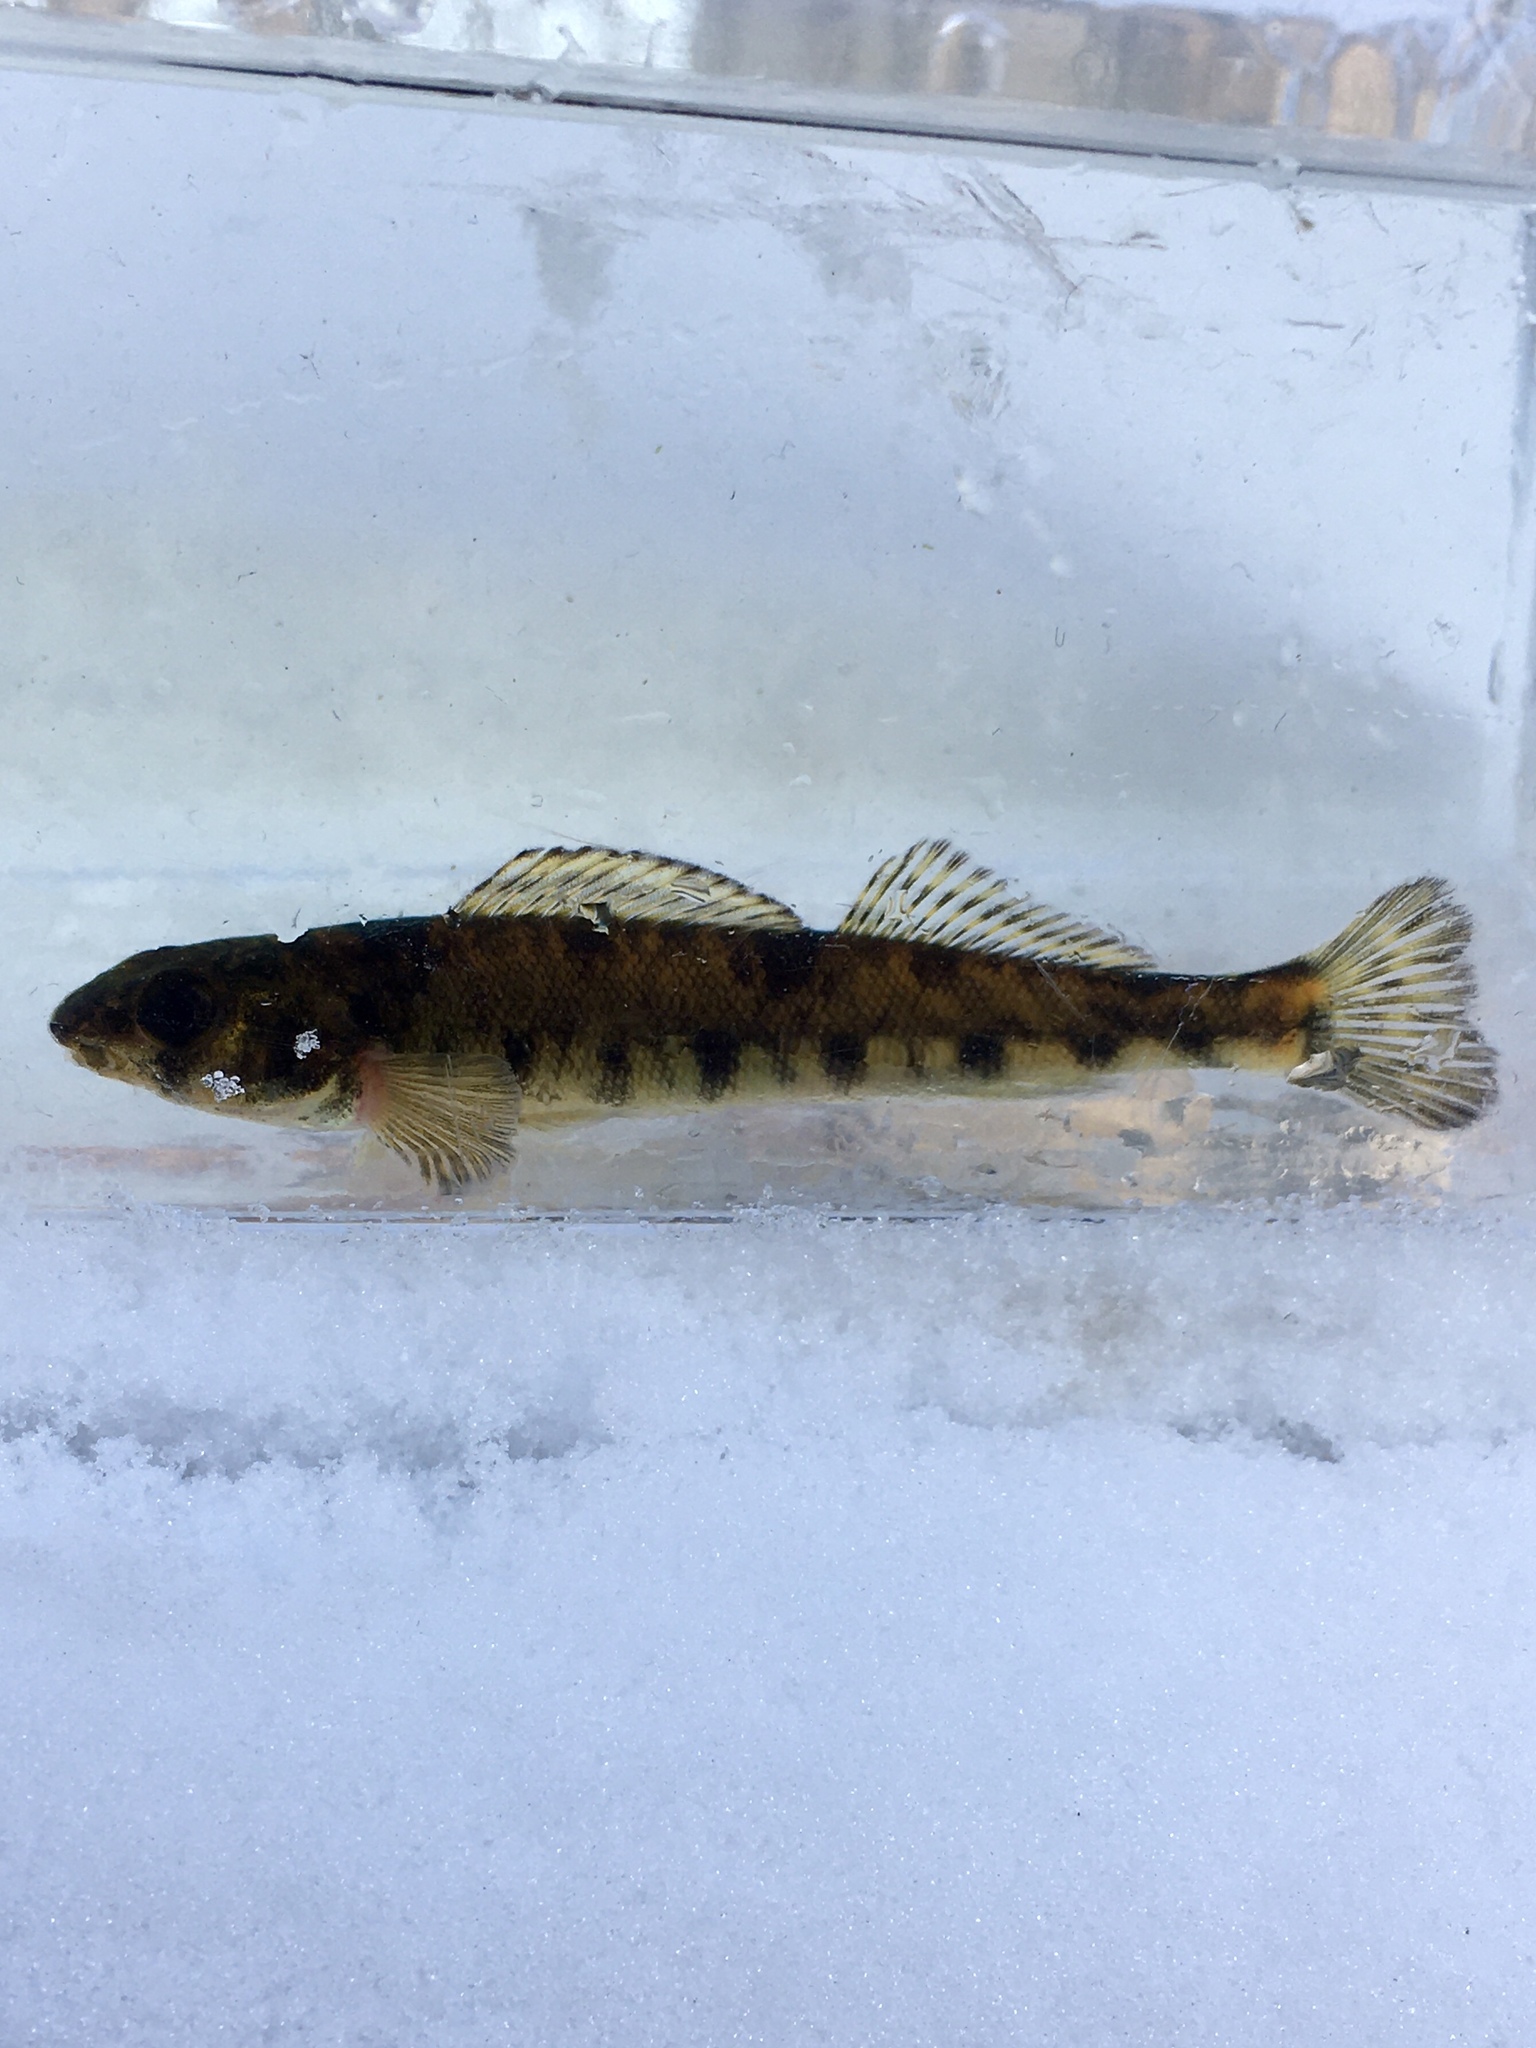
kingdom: Animalia
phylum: Chordata
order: Perciformes
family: Percidae
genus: Percina
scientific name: Percina caprodes
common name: Logperch
